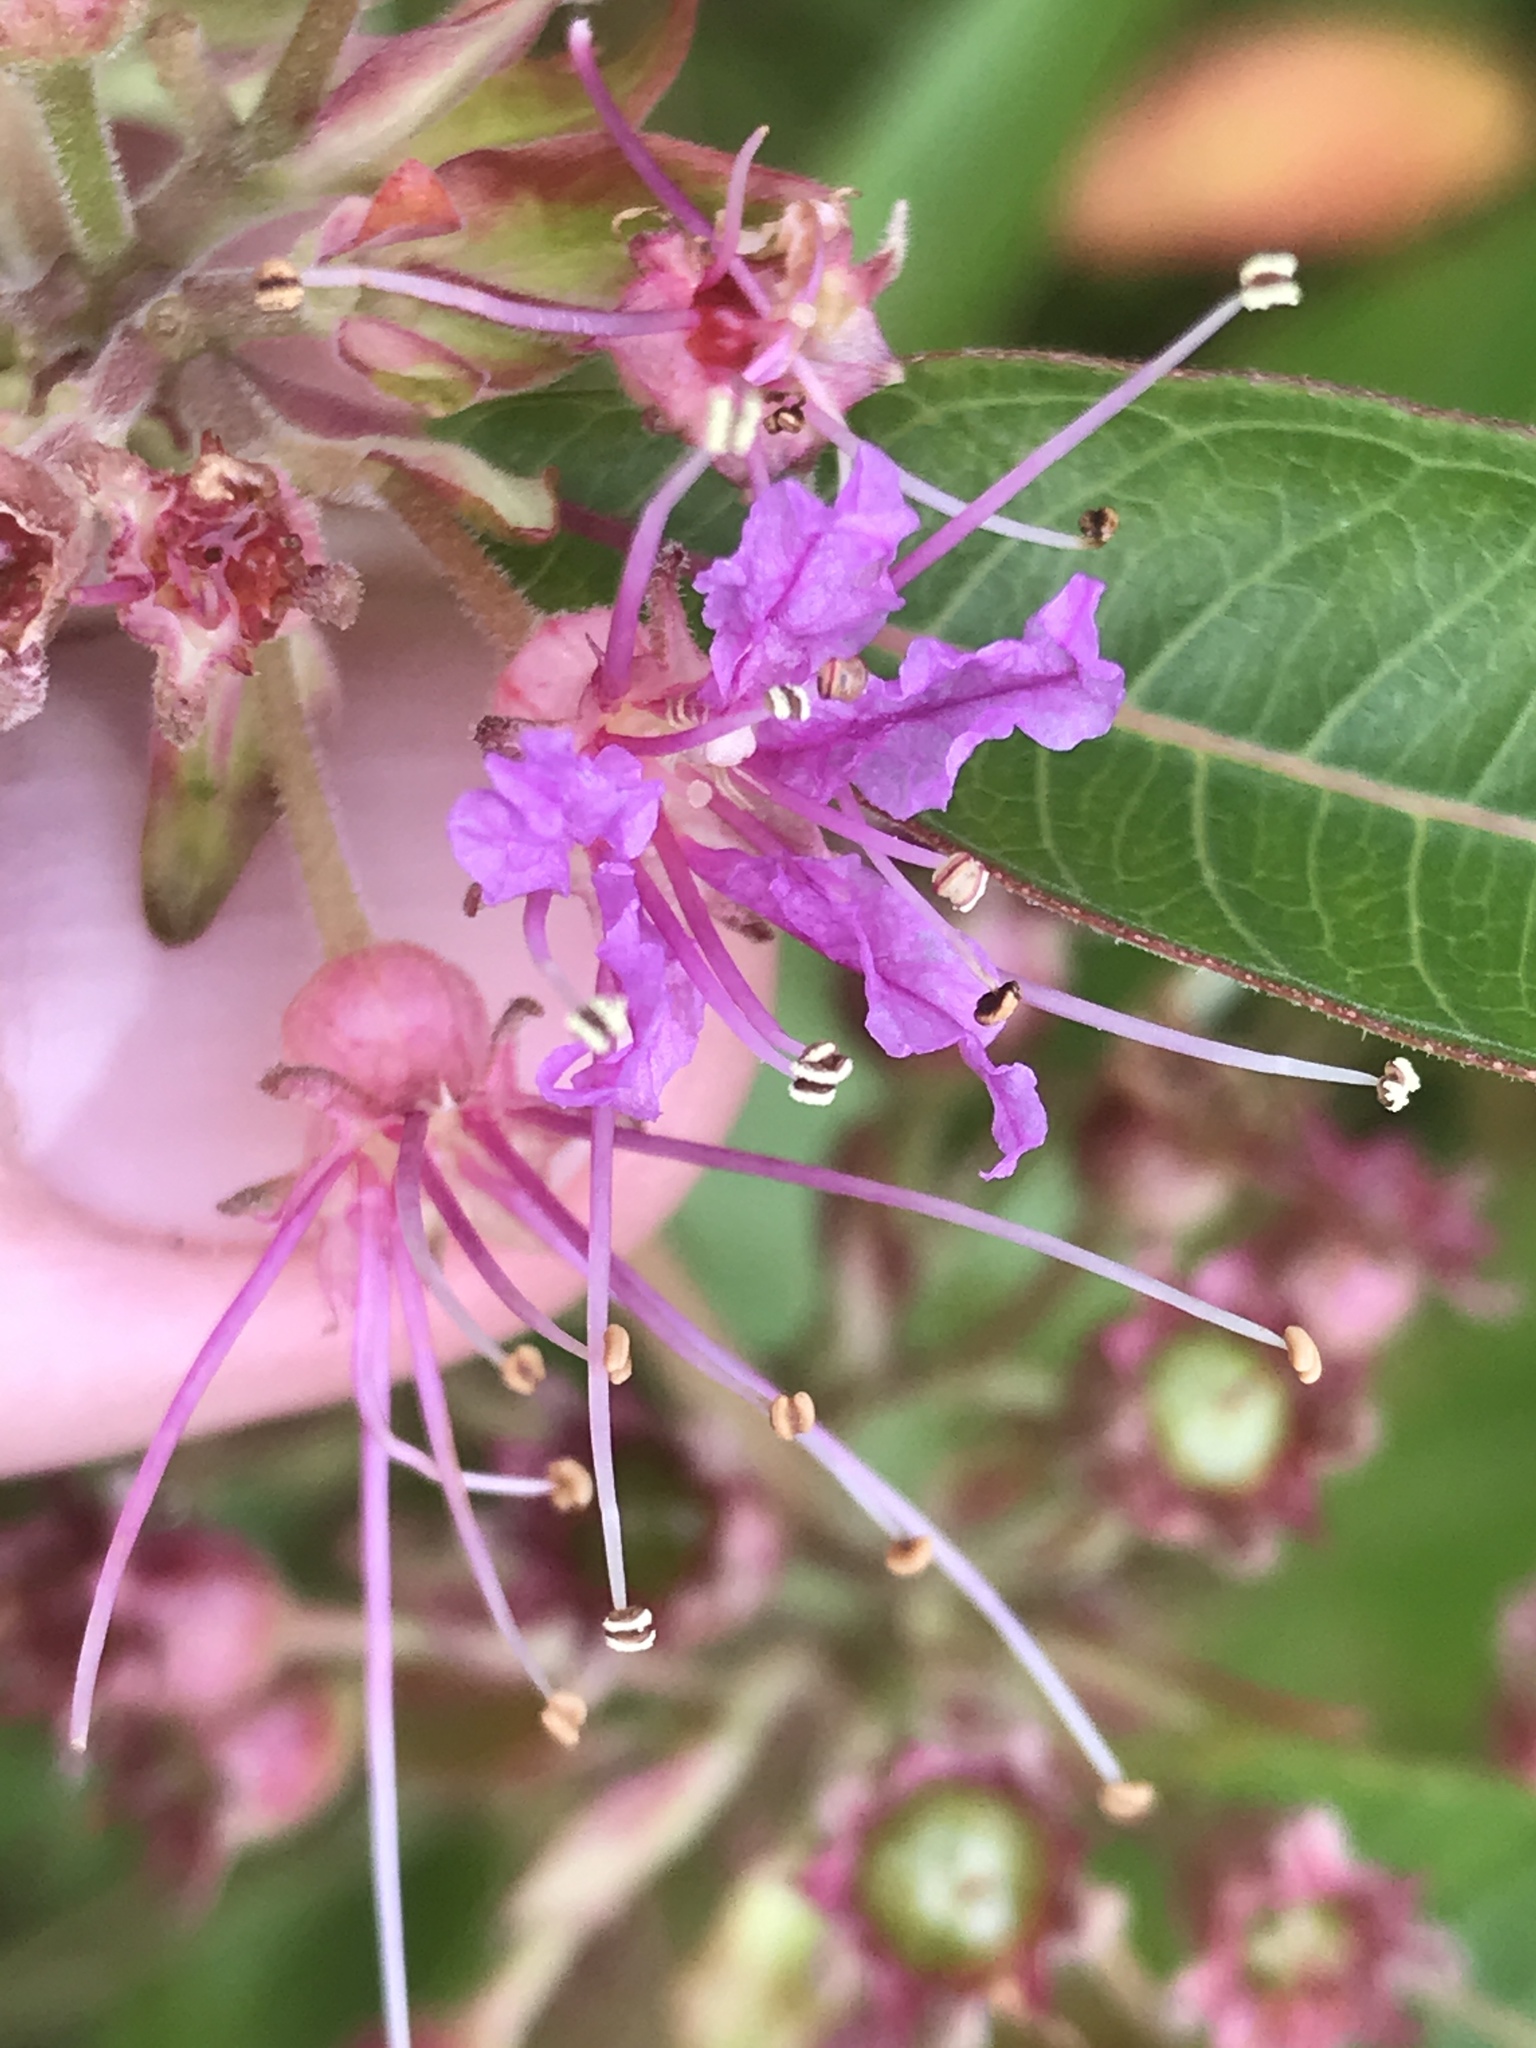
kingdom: Plantae
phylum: Tracheophyta
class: Magnoliopsida
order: Myrtales
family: Lythraceae
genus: Decodon
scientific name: Decodon verticillatus
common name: Hairy swamp loosestrife
